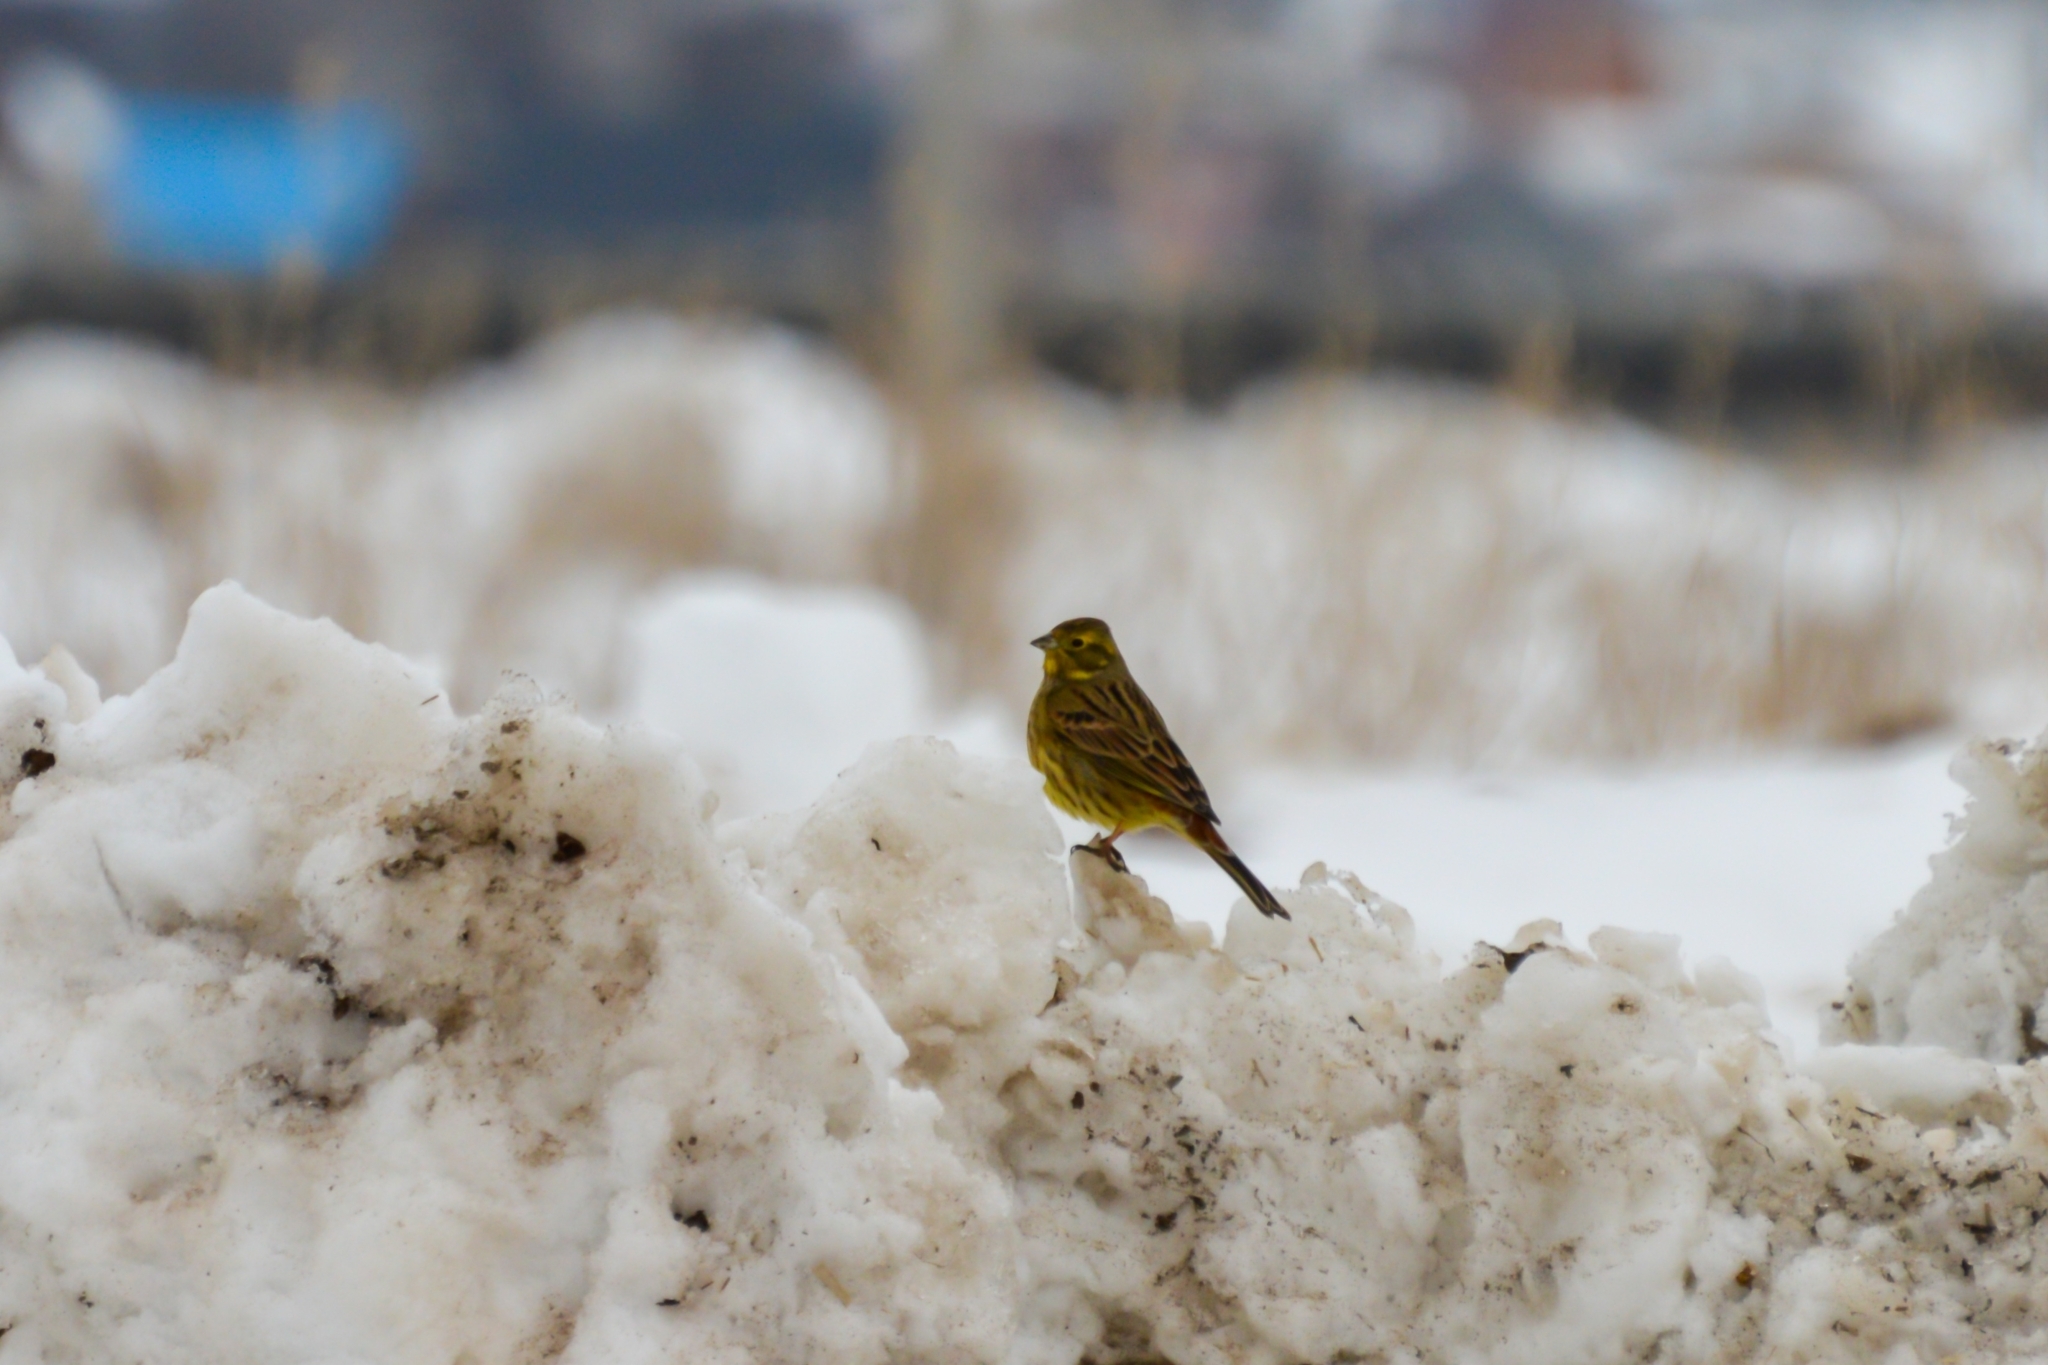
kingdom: Animalia
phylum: Chordata
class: Aves
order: Passeriformes
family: Emberizidae
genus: Emberiza
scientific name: Emberiza citrinella
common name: Yellowhammer
